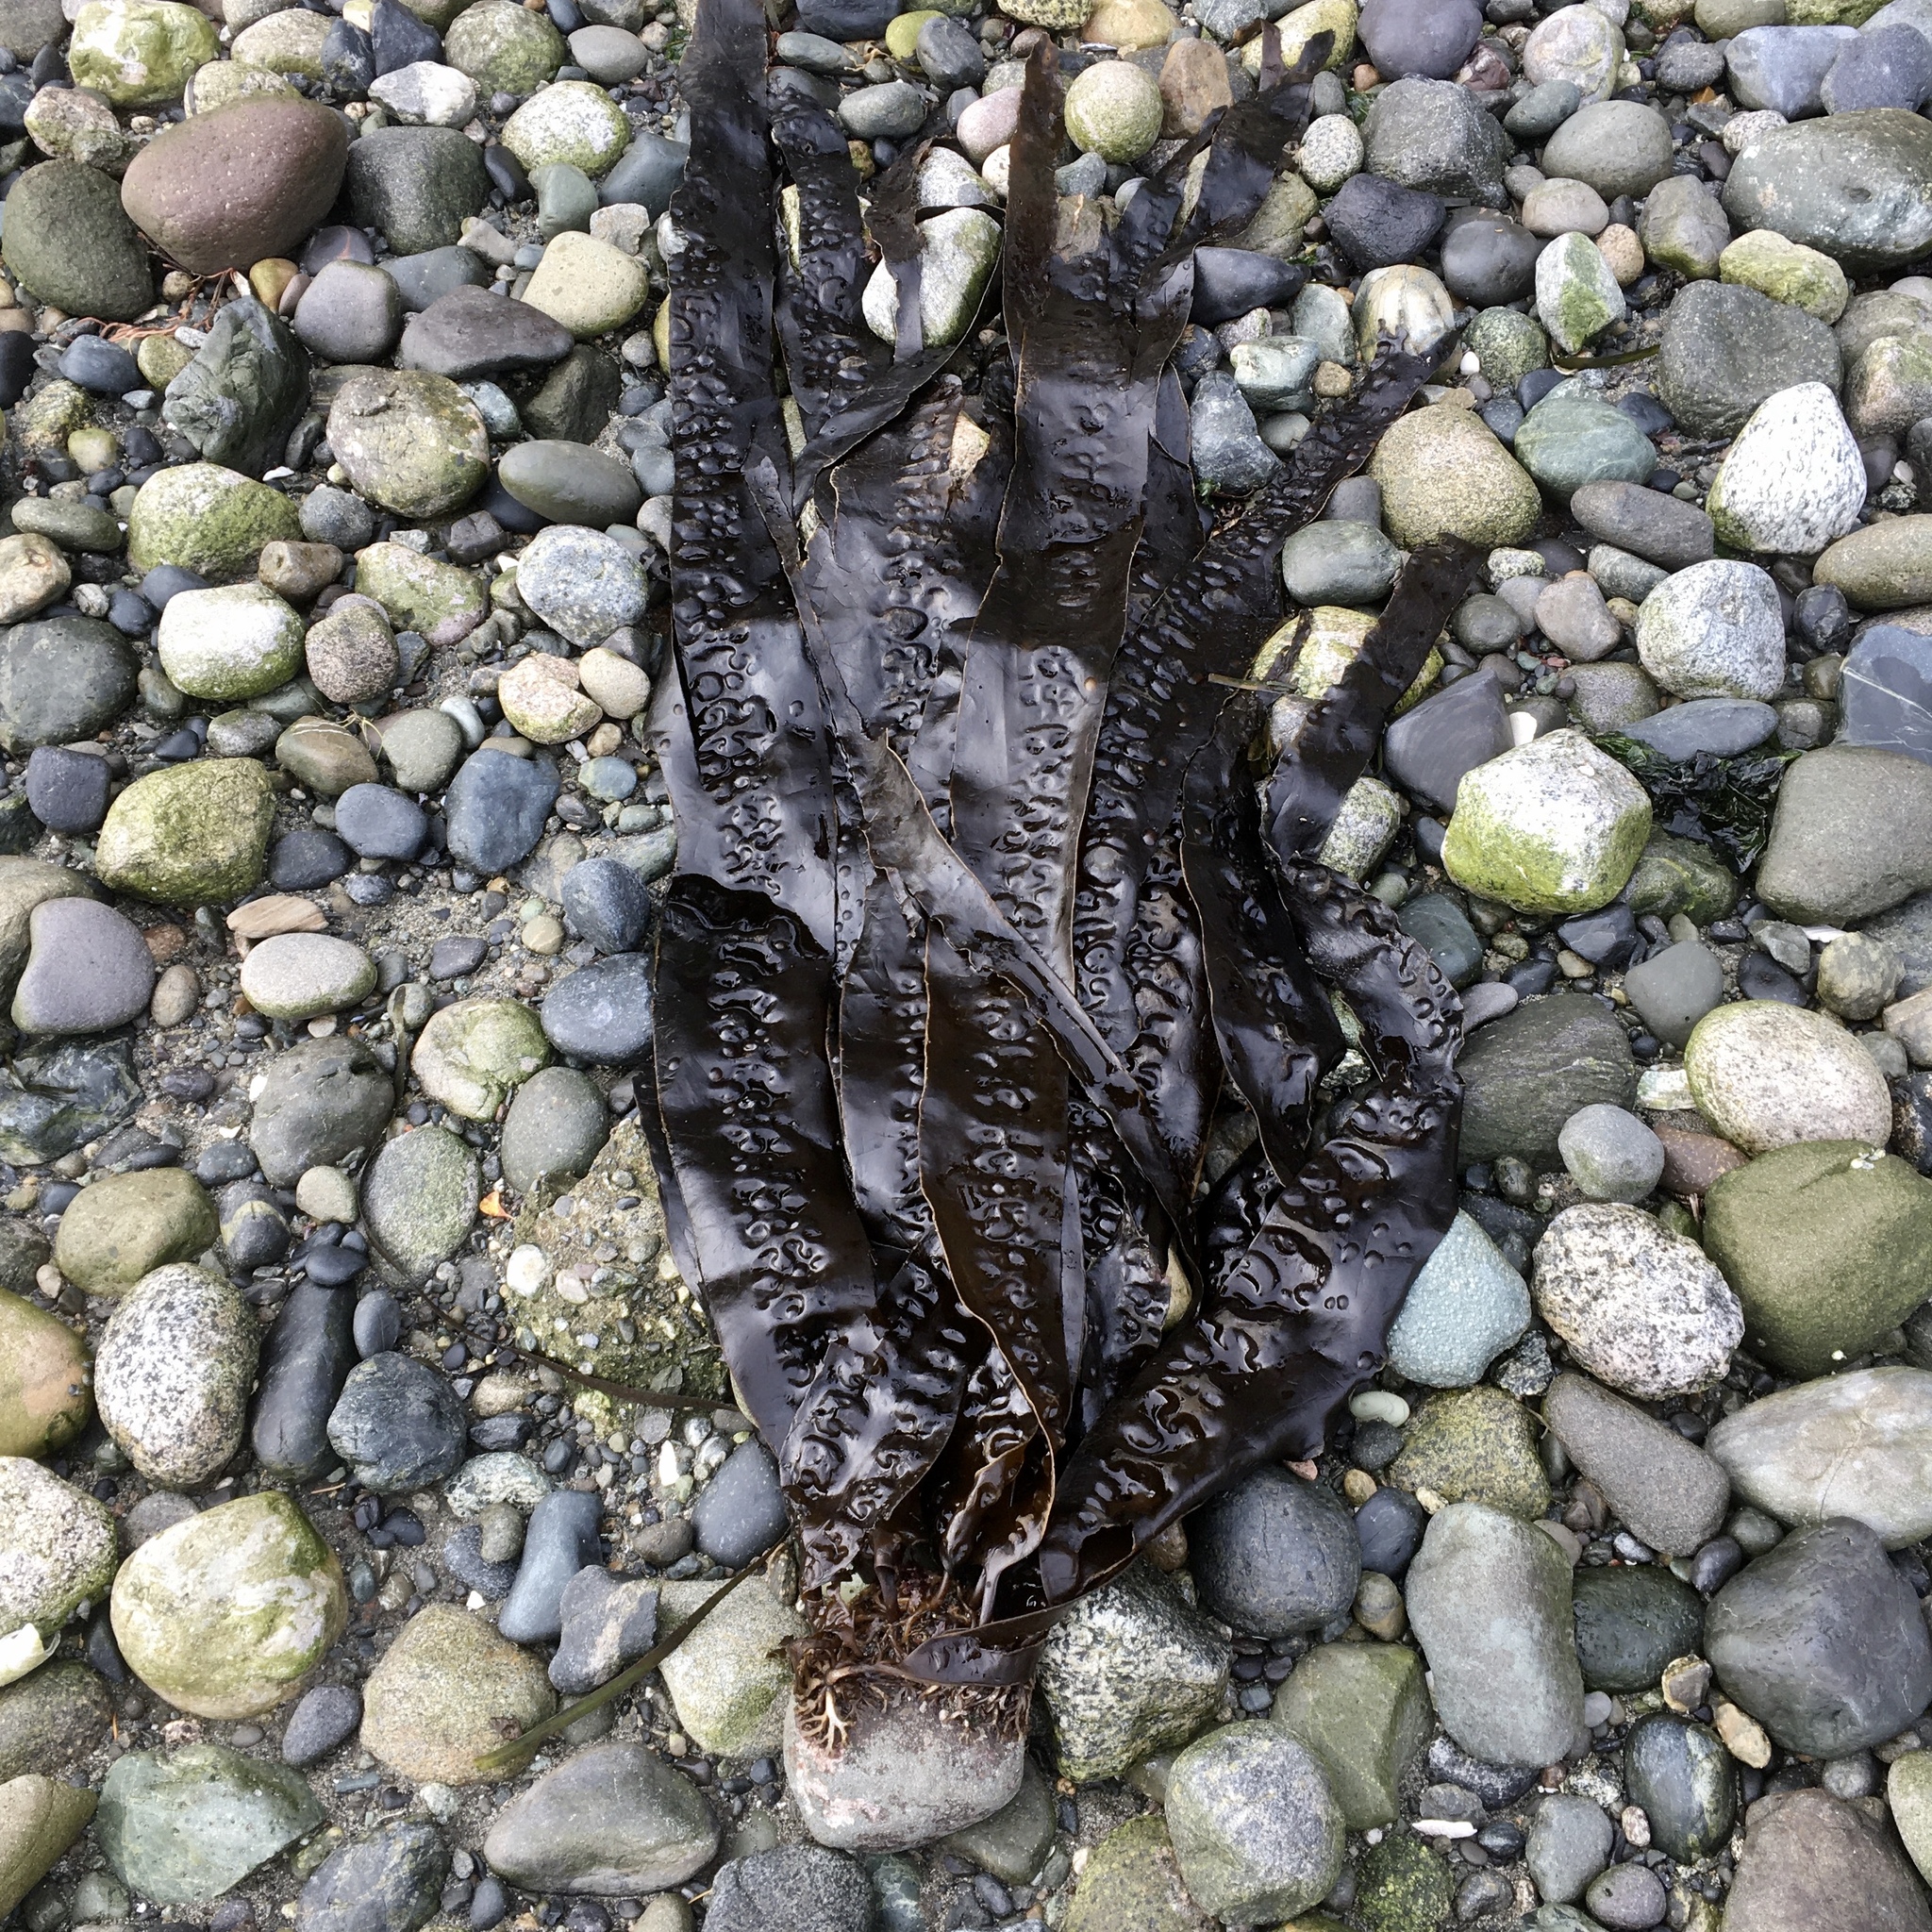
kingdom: Chromista
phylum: Ochrophyta
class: Phaeophyceae
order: Laminariales
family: Laminariaceae
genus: Saccharina
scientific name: Saccharina latissima
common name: Poor man's weather glass
